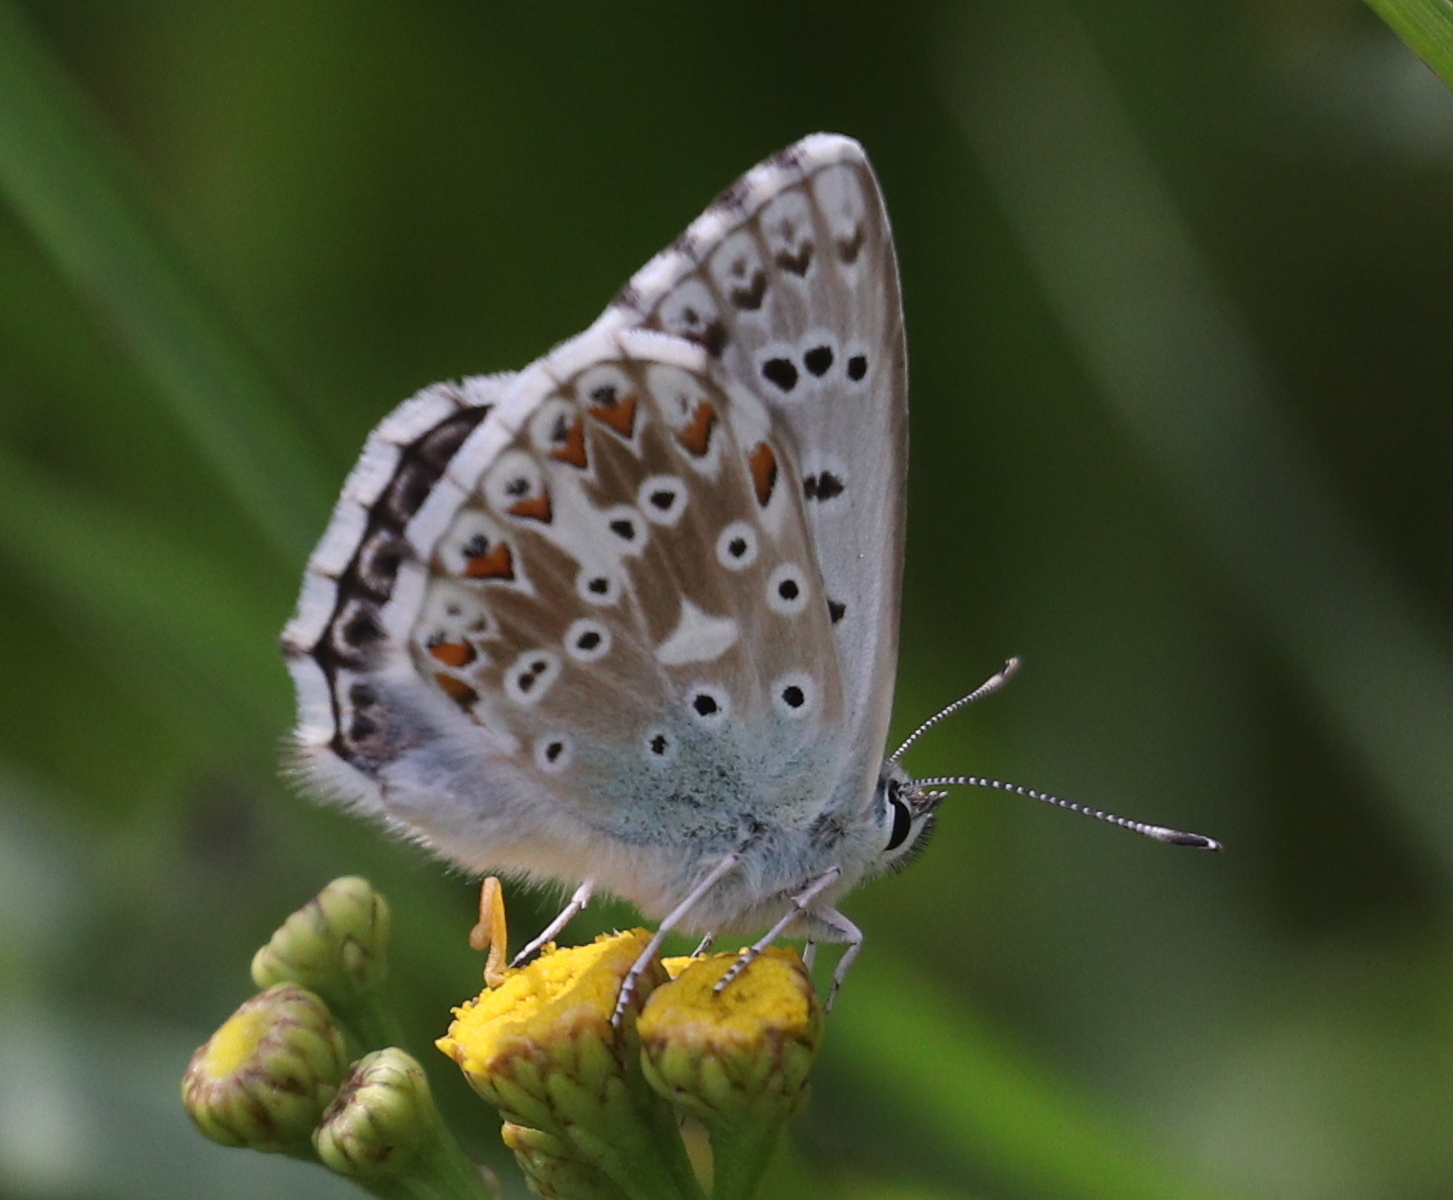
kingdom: Animalia
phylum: Arthropoda
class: Insecta
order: Lepidoptera
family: Lycaenidae
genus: Lysandra
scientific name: Lysandra coridon
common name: Chalkhill blue
